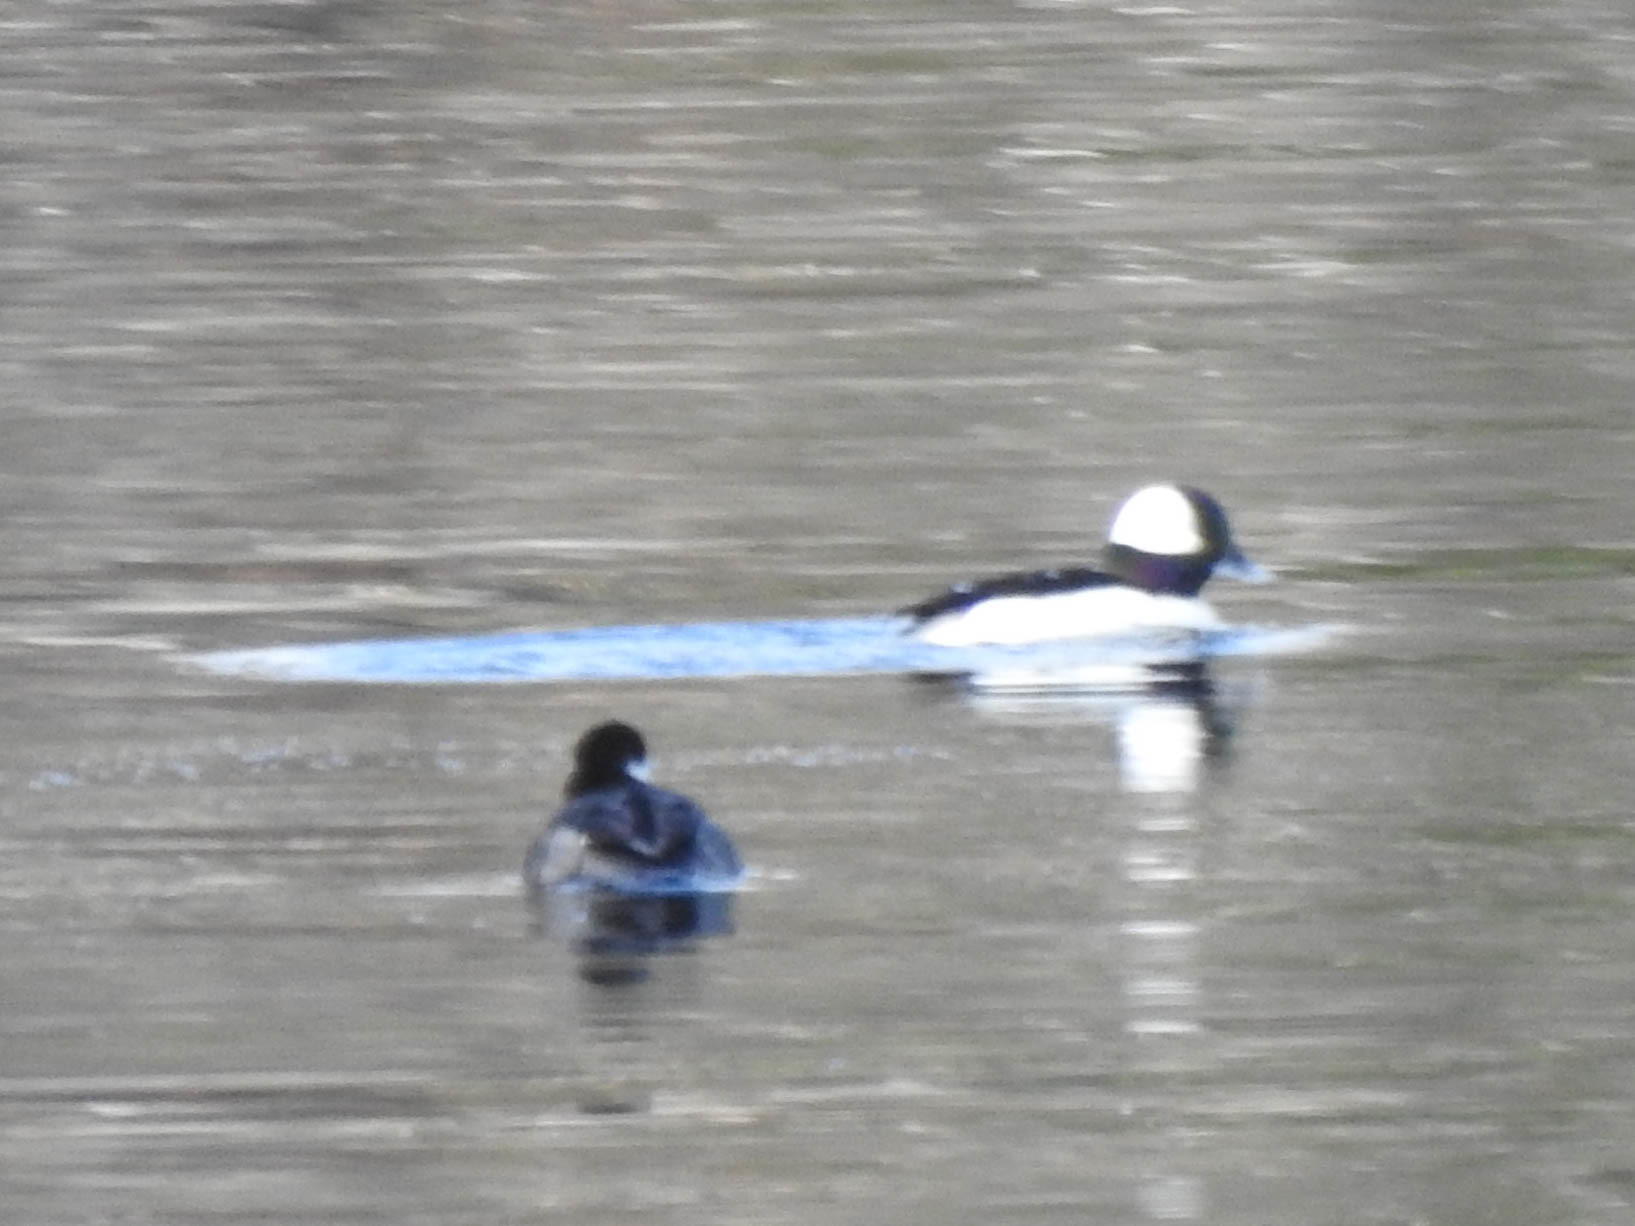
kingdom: Animalia
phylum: Chordata
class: Aves
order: Anseriformes
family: Anatidae
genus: Bucephala
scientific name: Bucephala albeola
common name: Bufflehead
